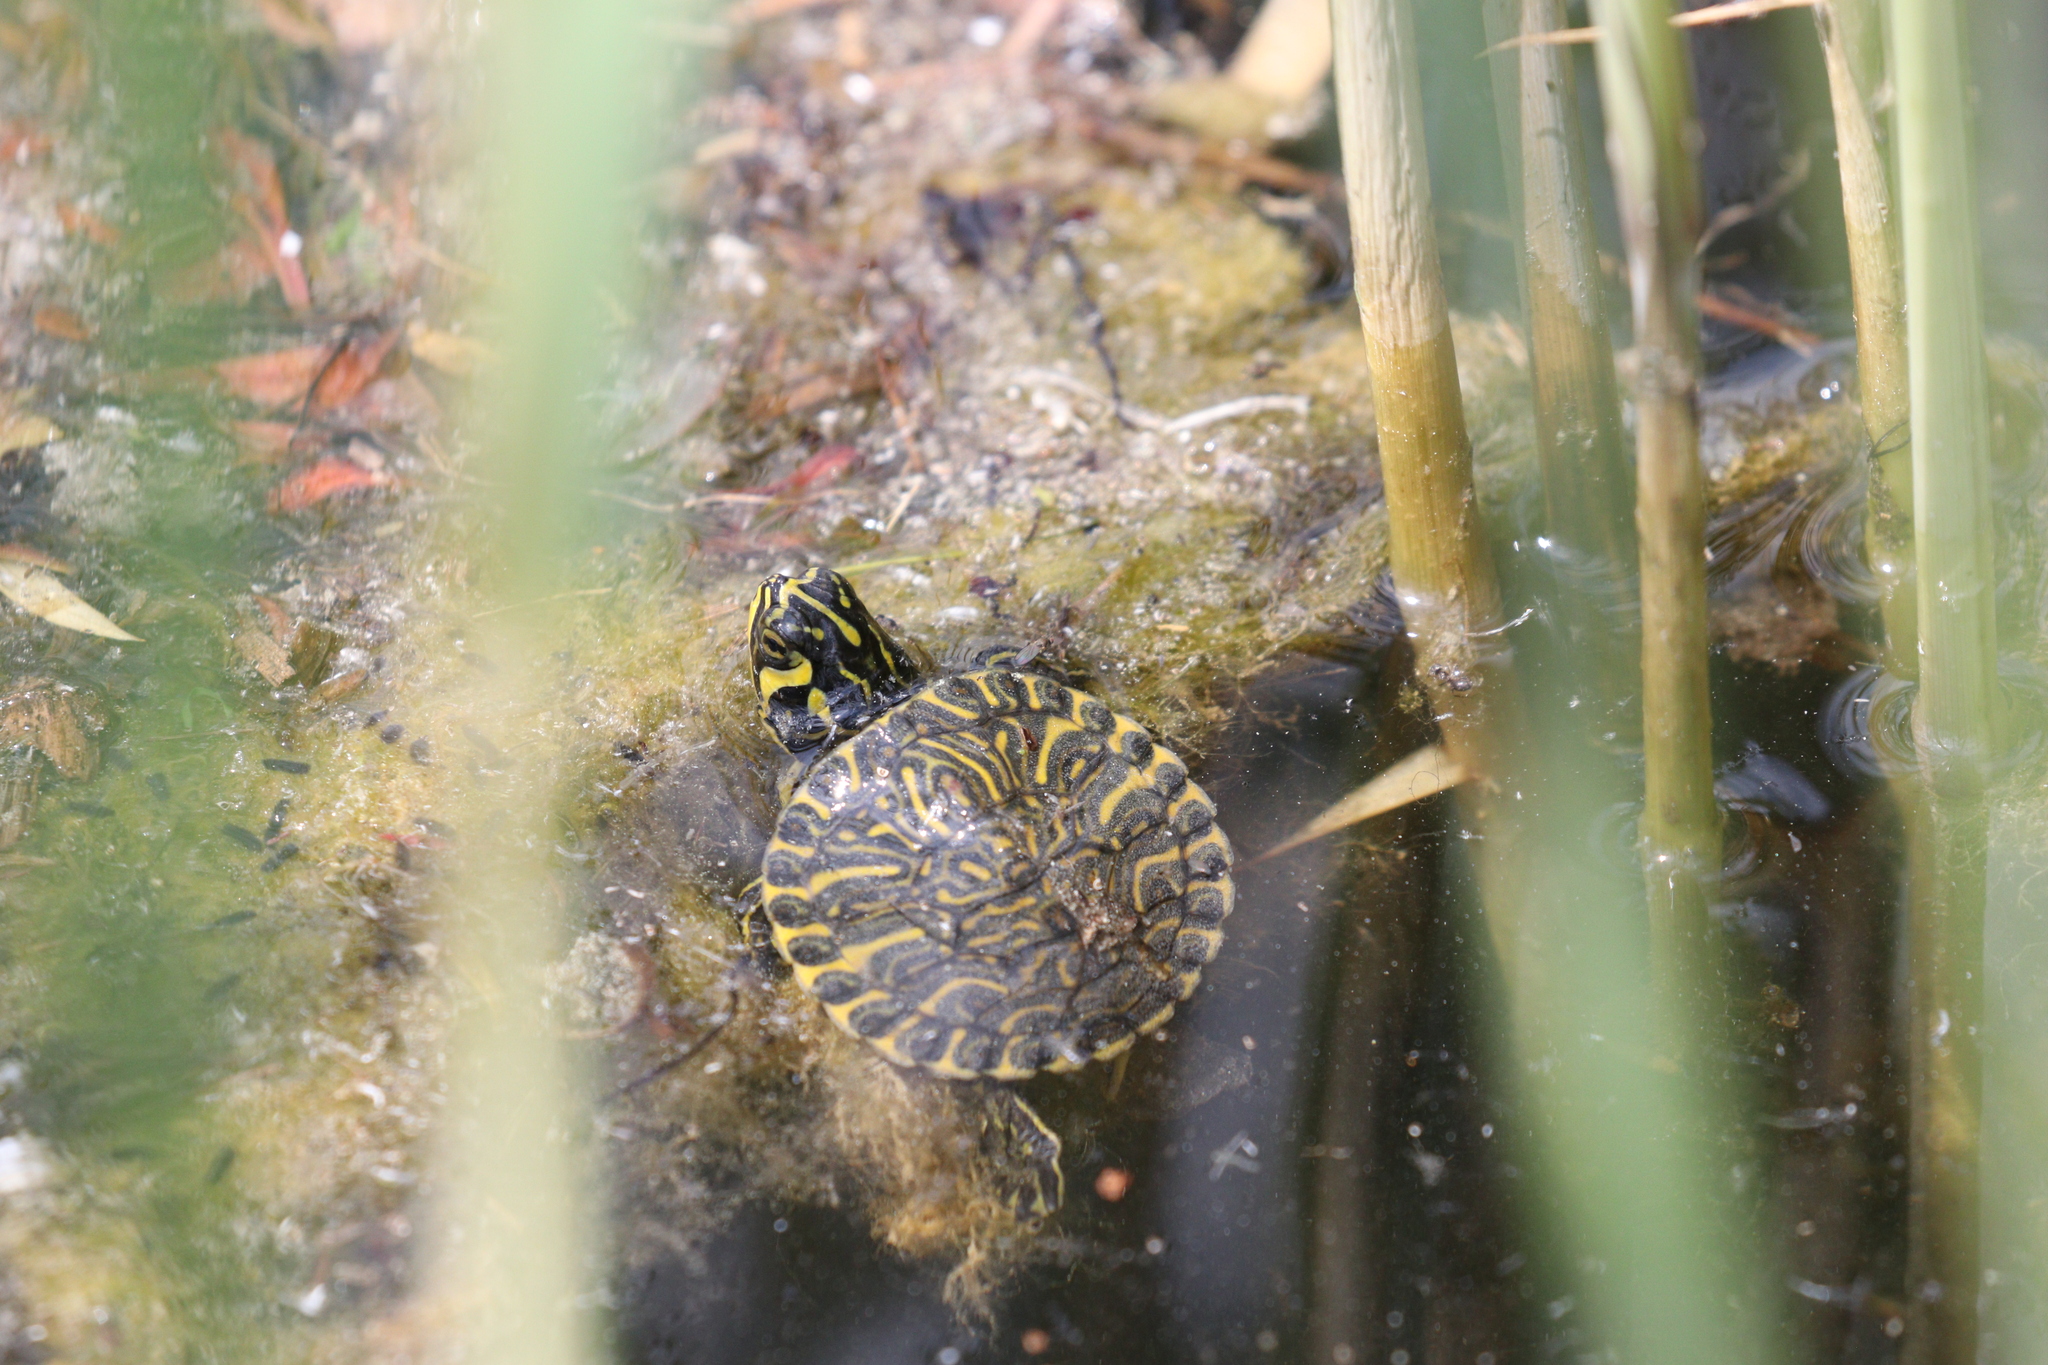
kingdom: Animalia
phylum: Chordata
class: Testudines
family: Emydidae
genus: Trachemys
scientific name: Trachemys scripta
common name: Slider
